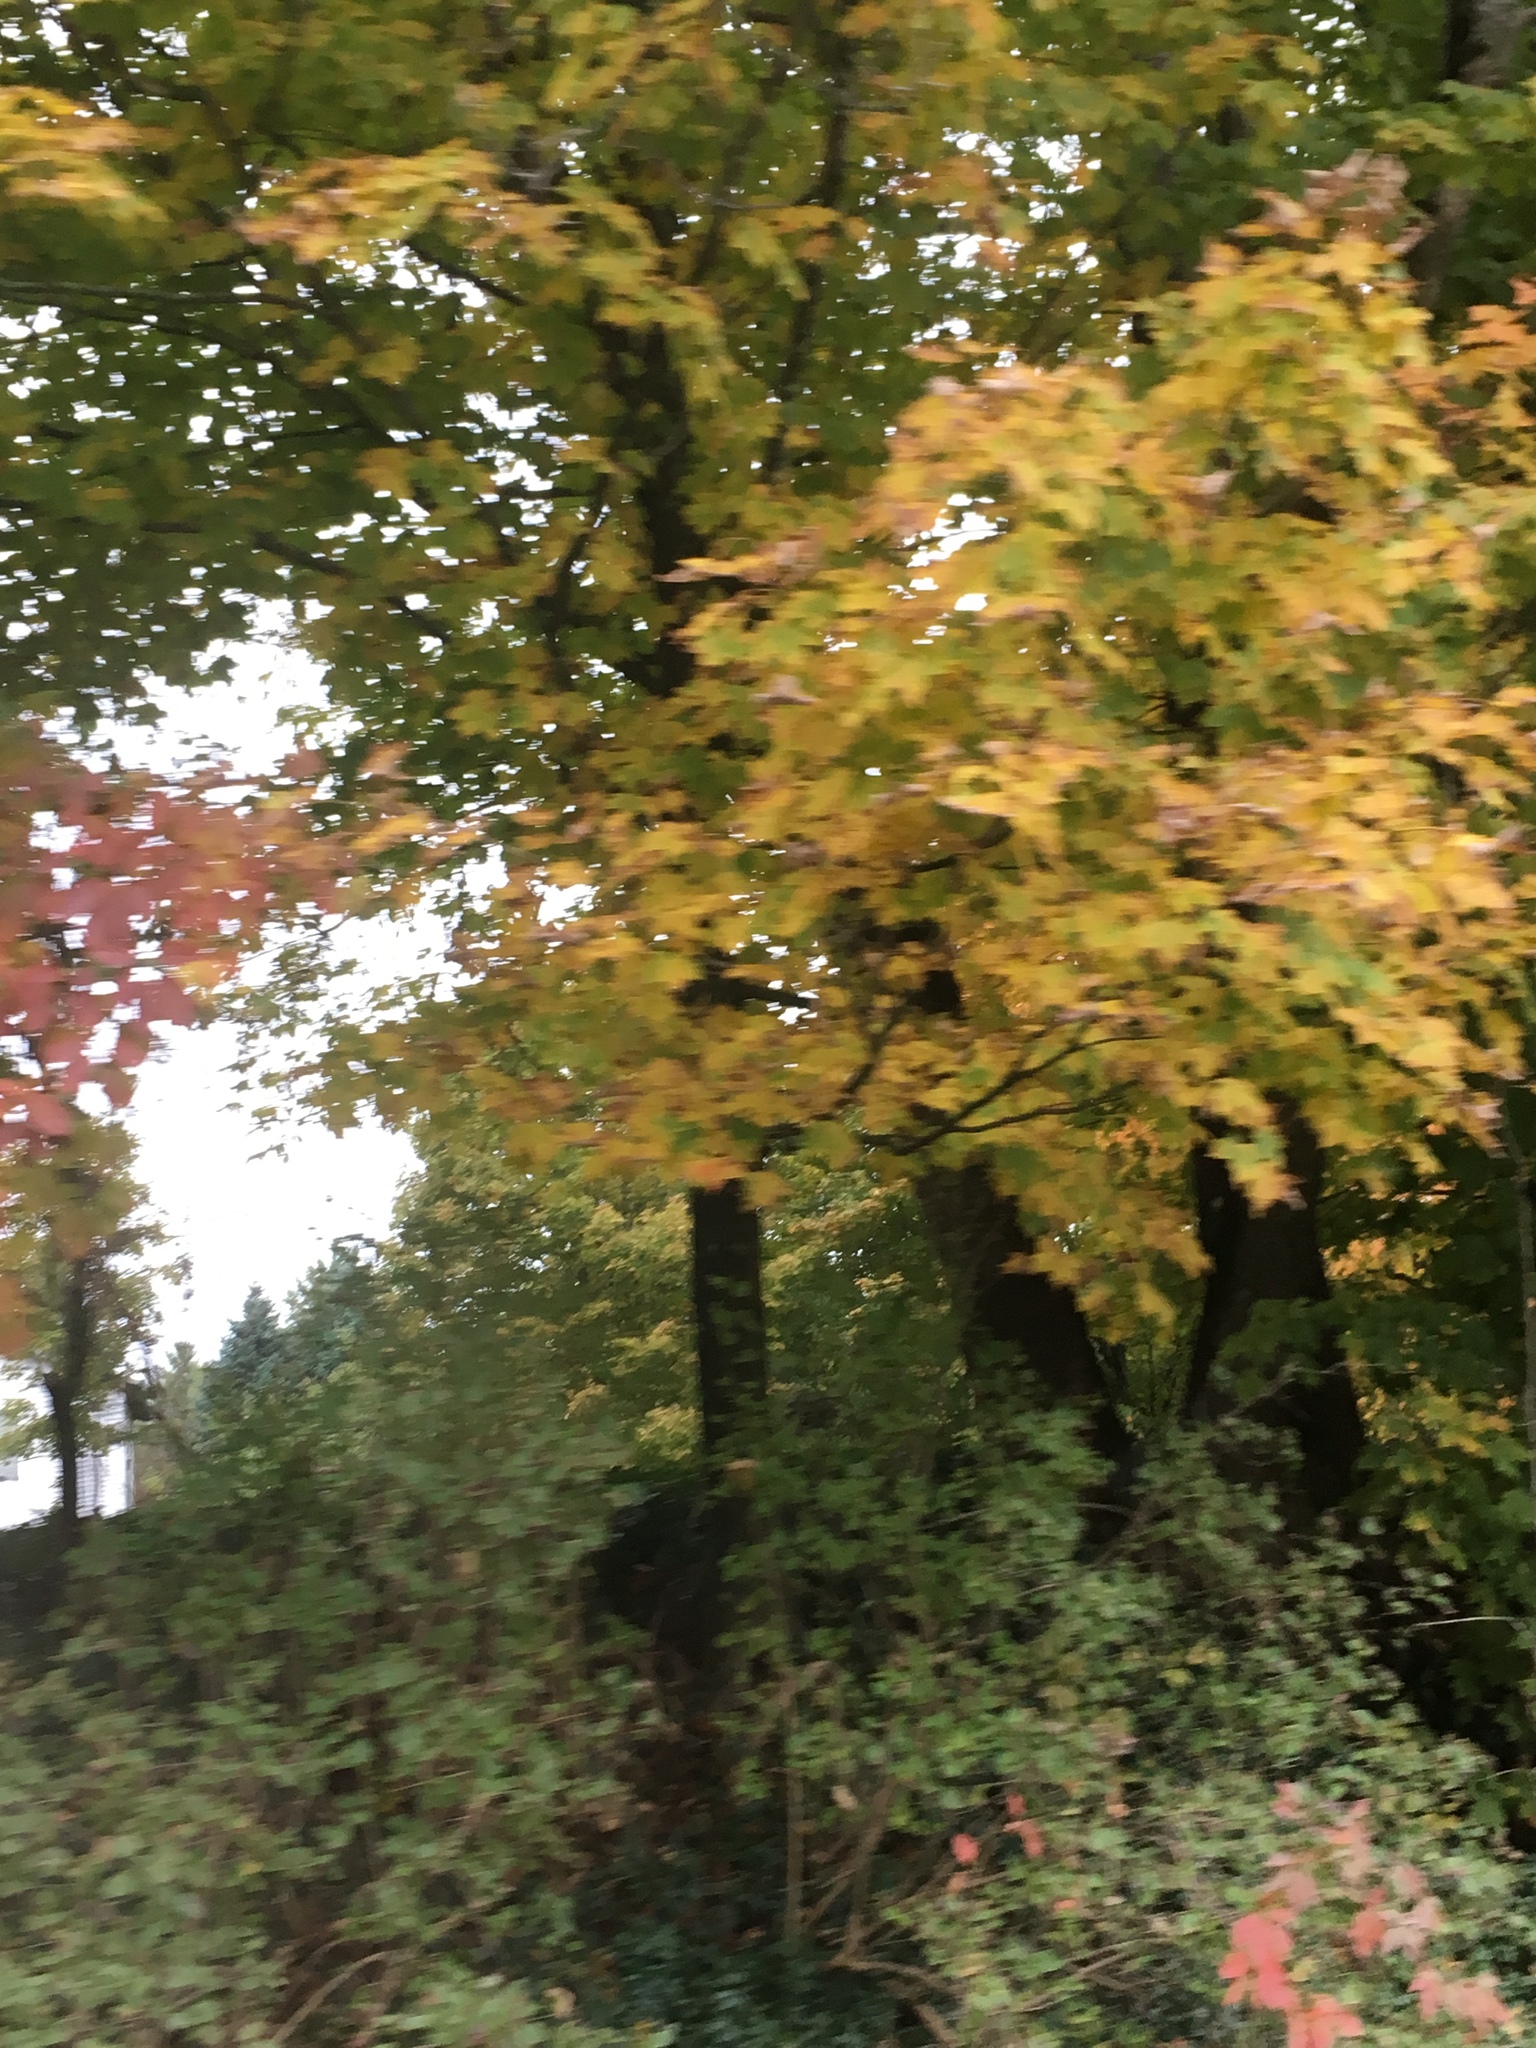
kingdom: Plantae
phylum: Tracheophyta
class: Magnoliopsida
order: Sapindales
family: Sapindaceae
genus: Acer
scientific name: Acer saccharum
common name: Sugar maple
